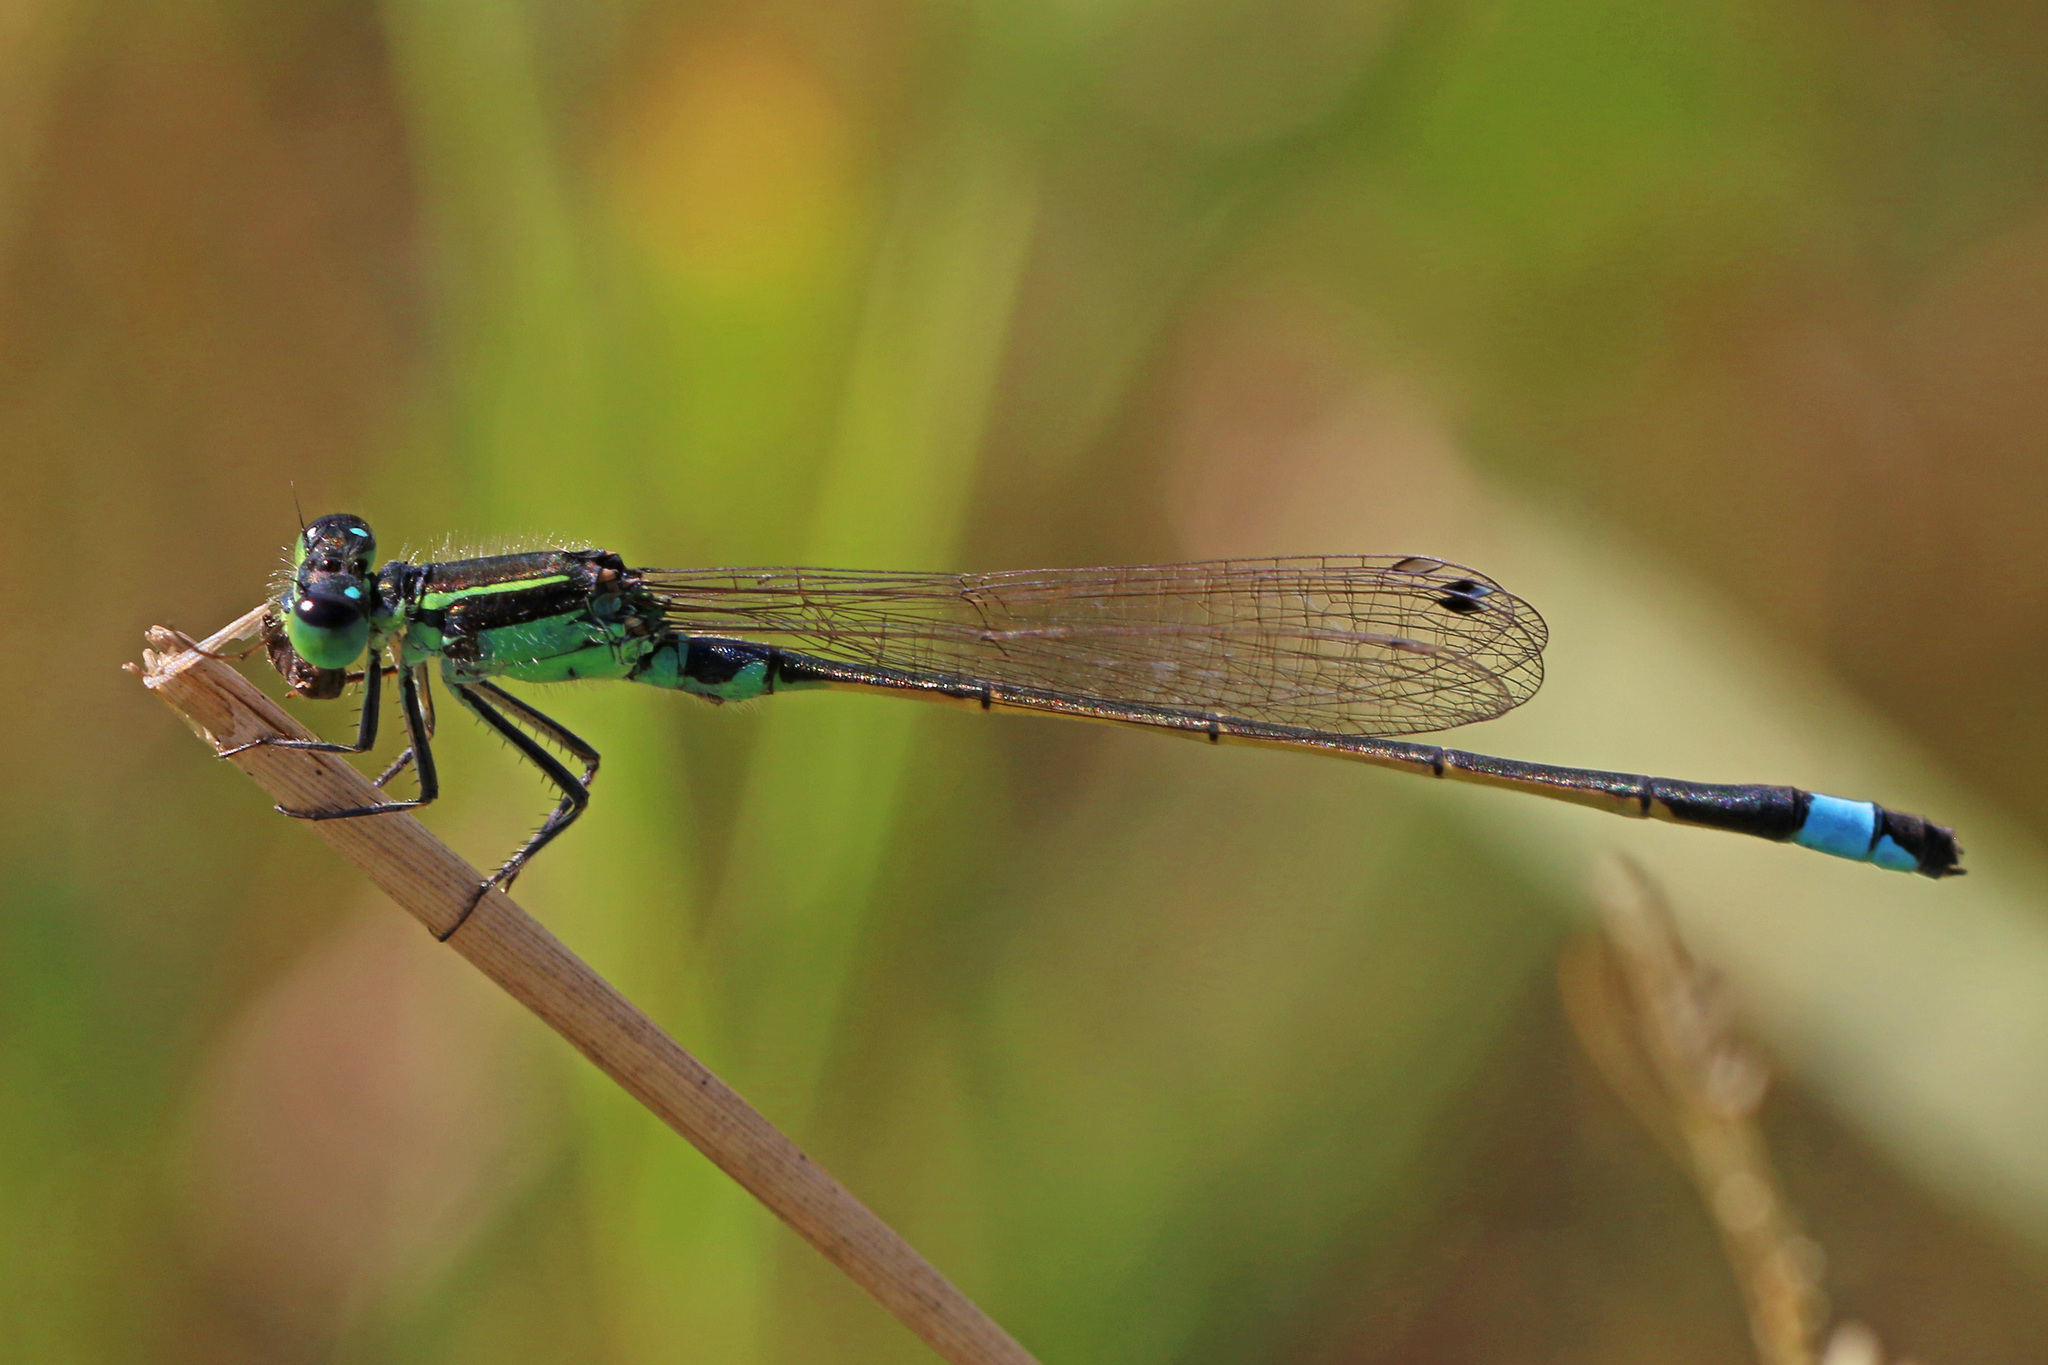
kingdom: Animalia
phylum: Arthropoda
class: Insecta
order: Odonata
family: Coenagrionidae
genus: Ischnura
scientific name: Ischnura senegalensis
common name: Tropical bluetail
